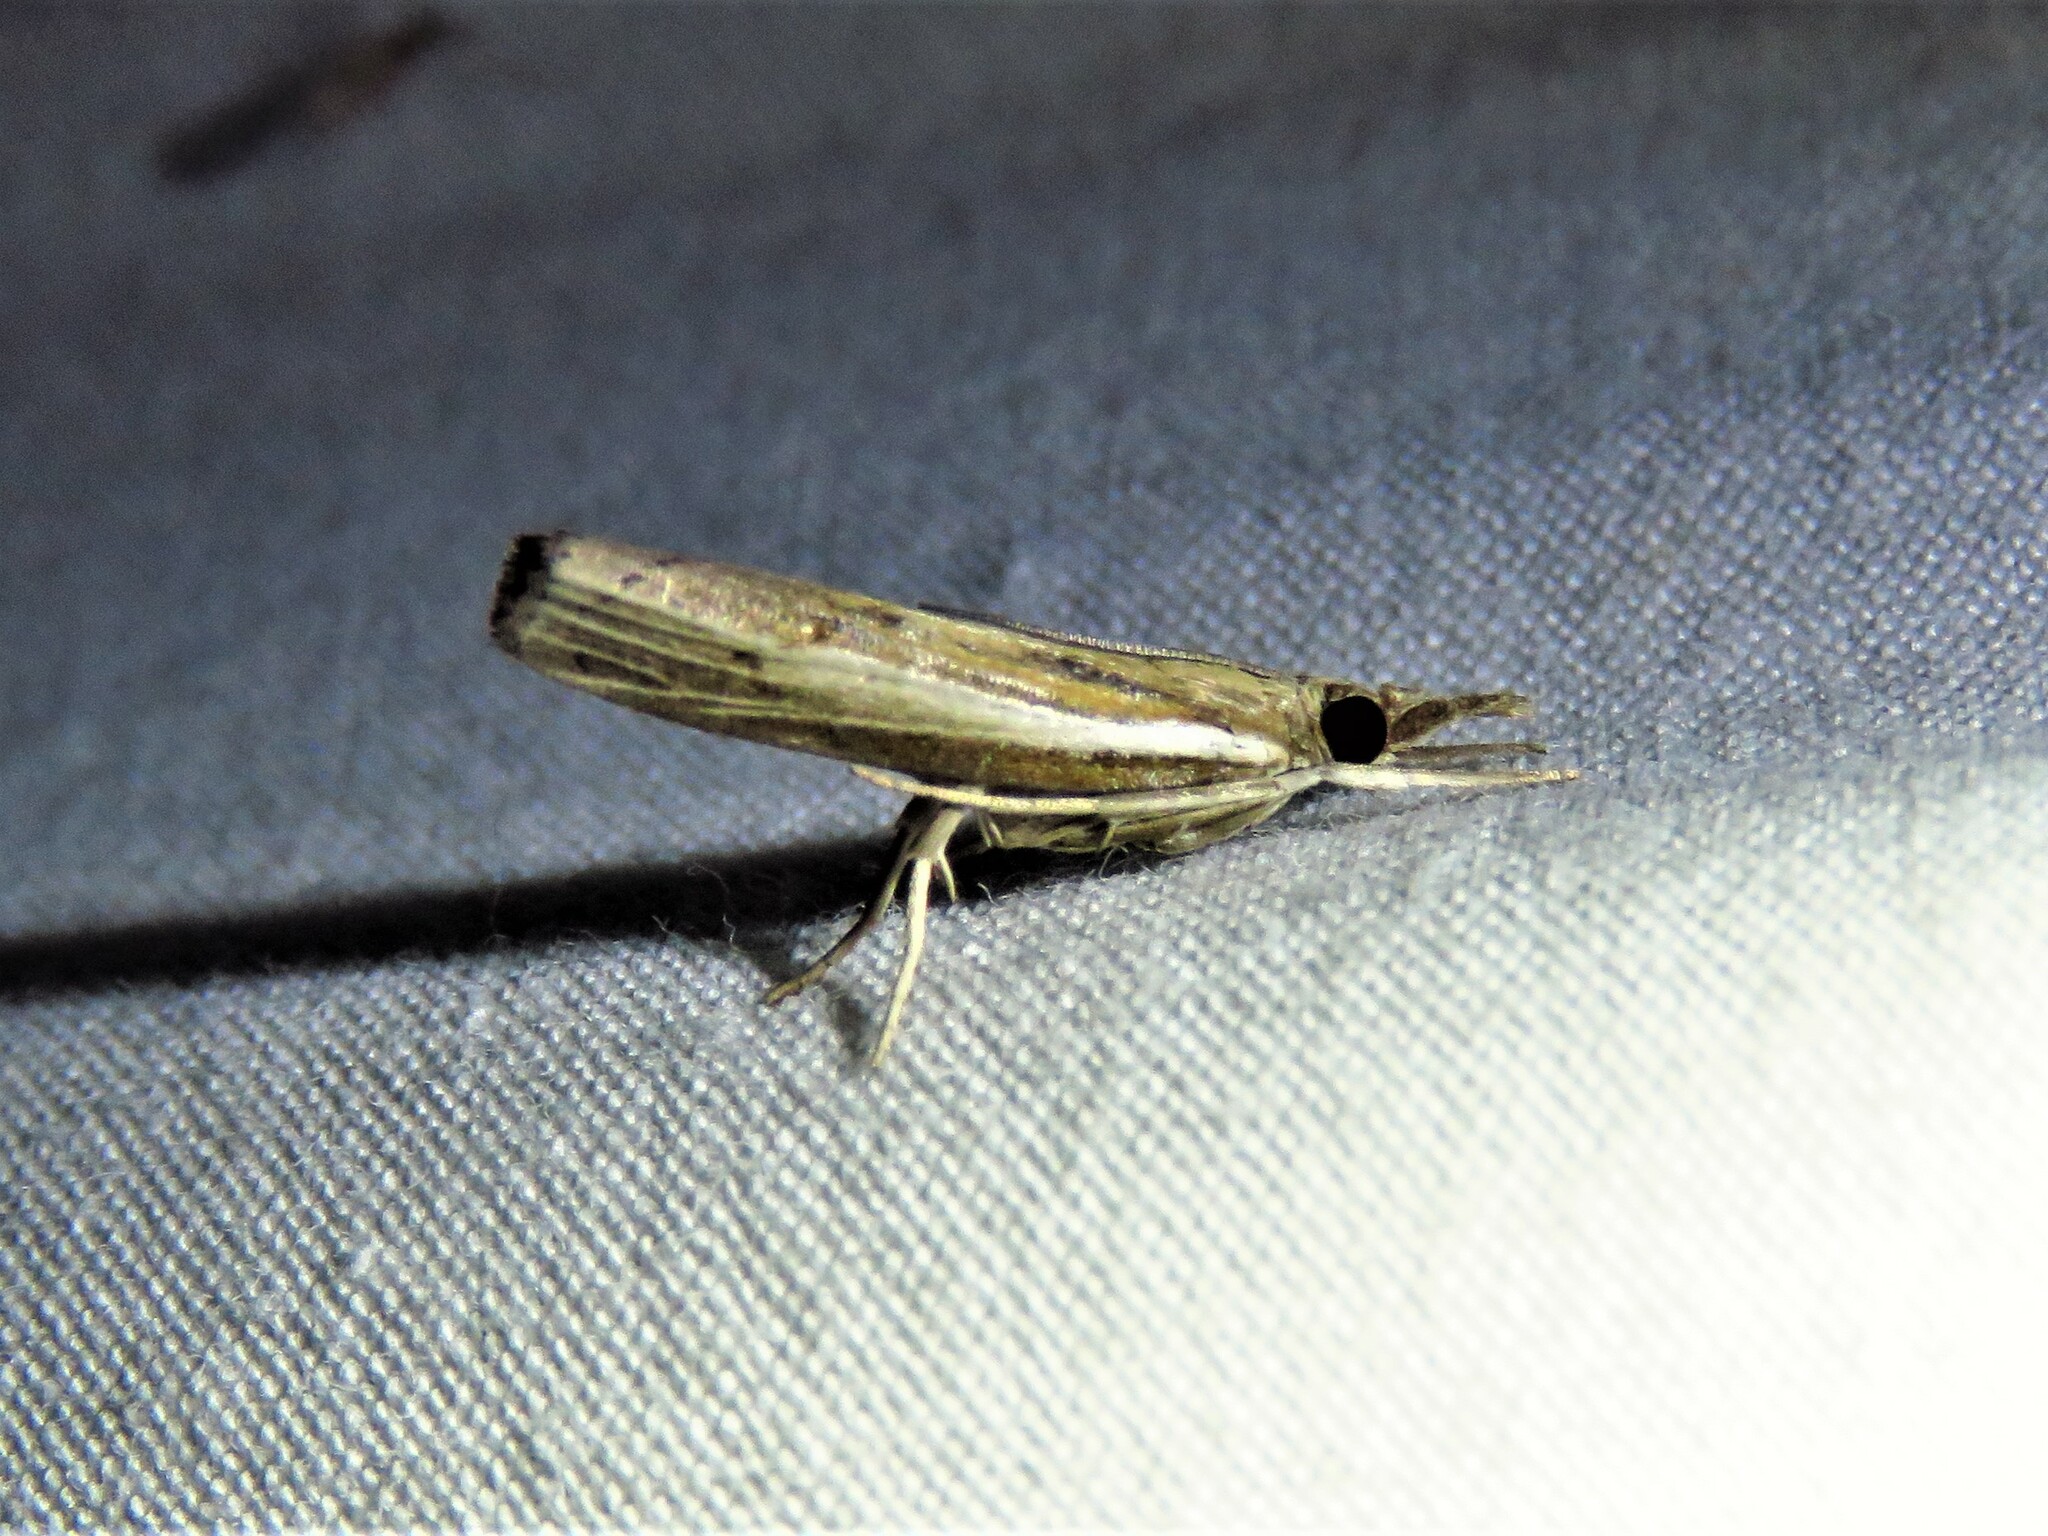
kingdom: Animalia
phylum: Arthropoda
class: Insecta
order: Lepidoptera
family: Crambidae
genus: Fissicrambus
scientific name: Fissicrambus fissiradiellus
